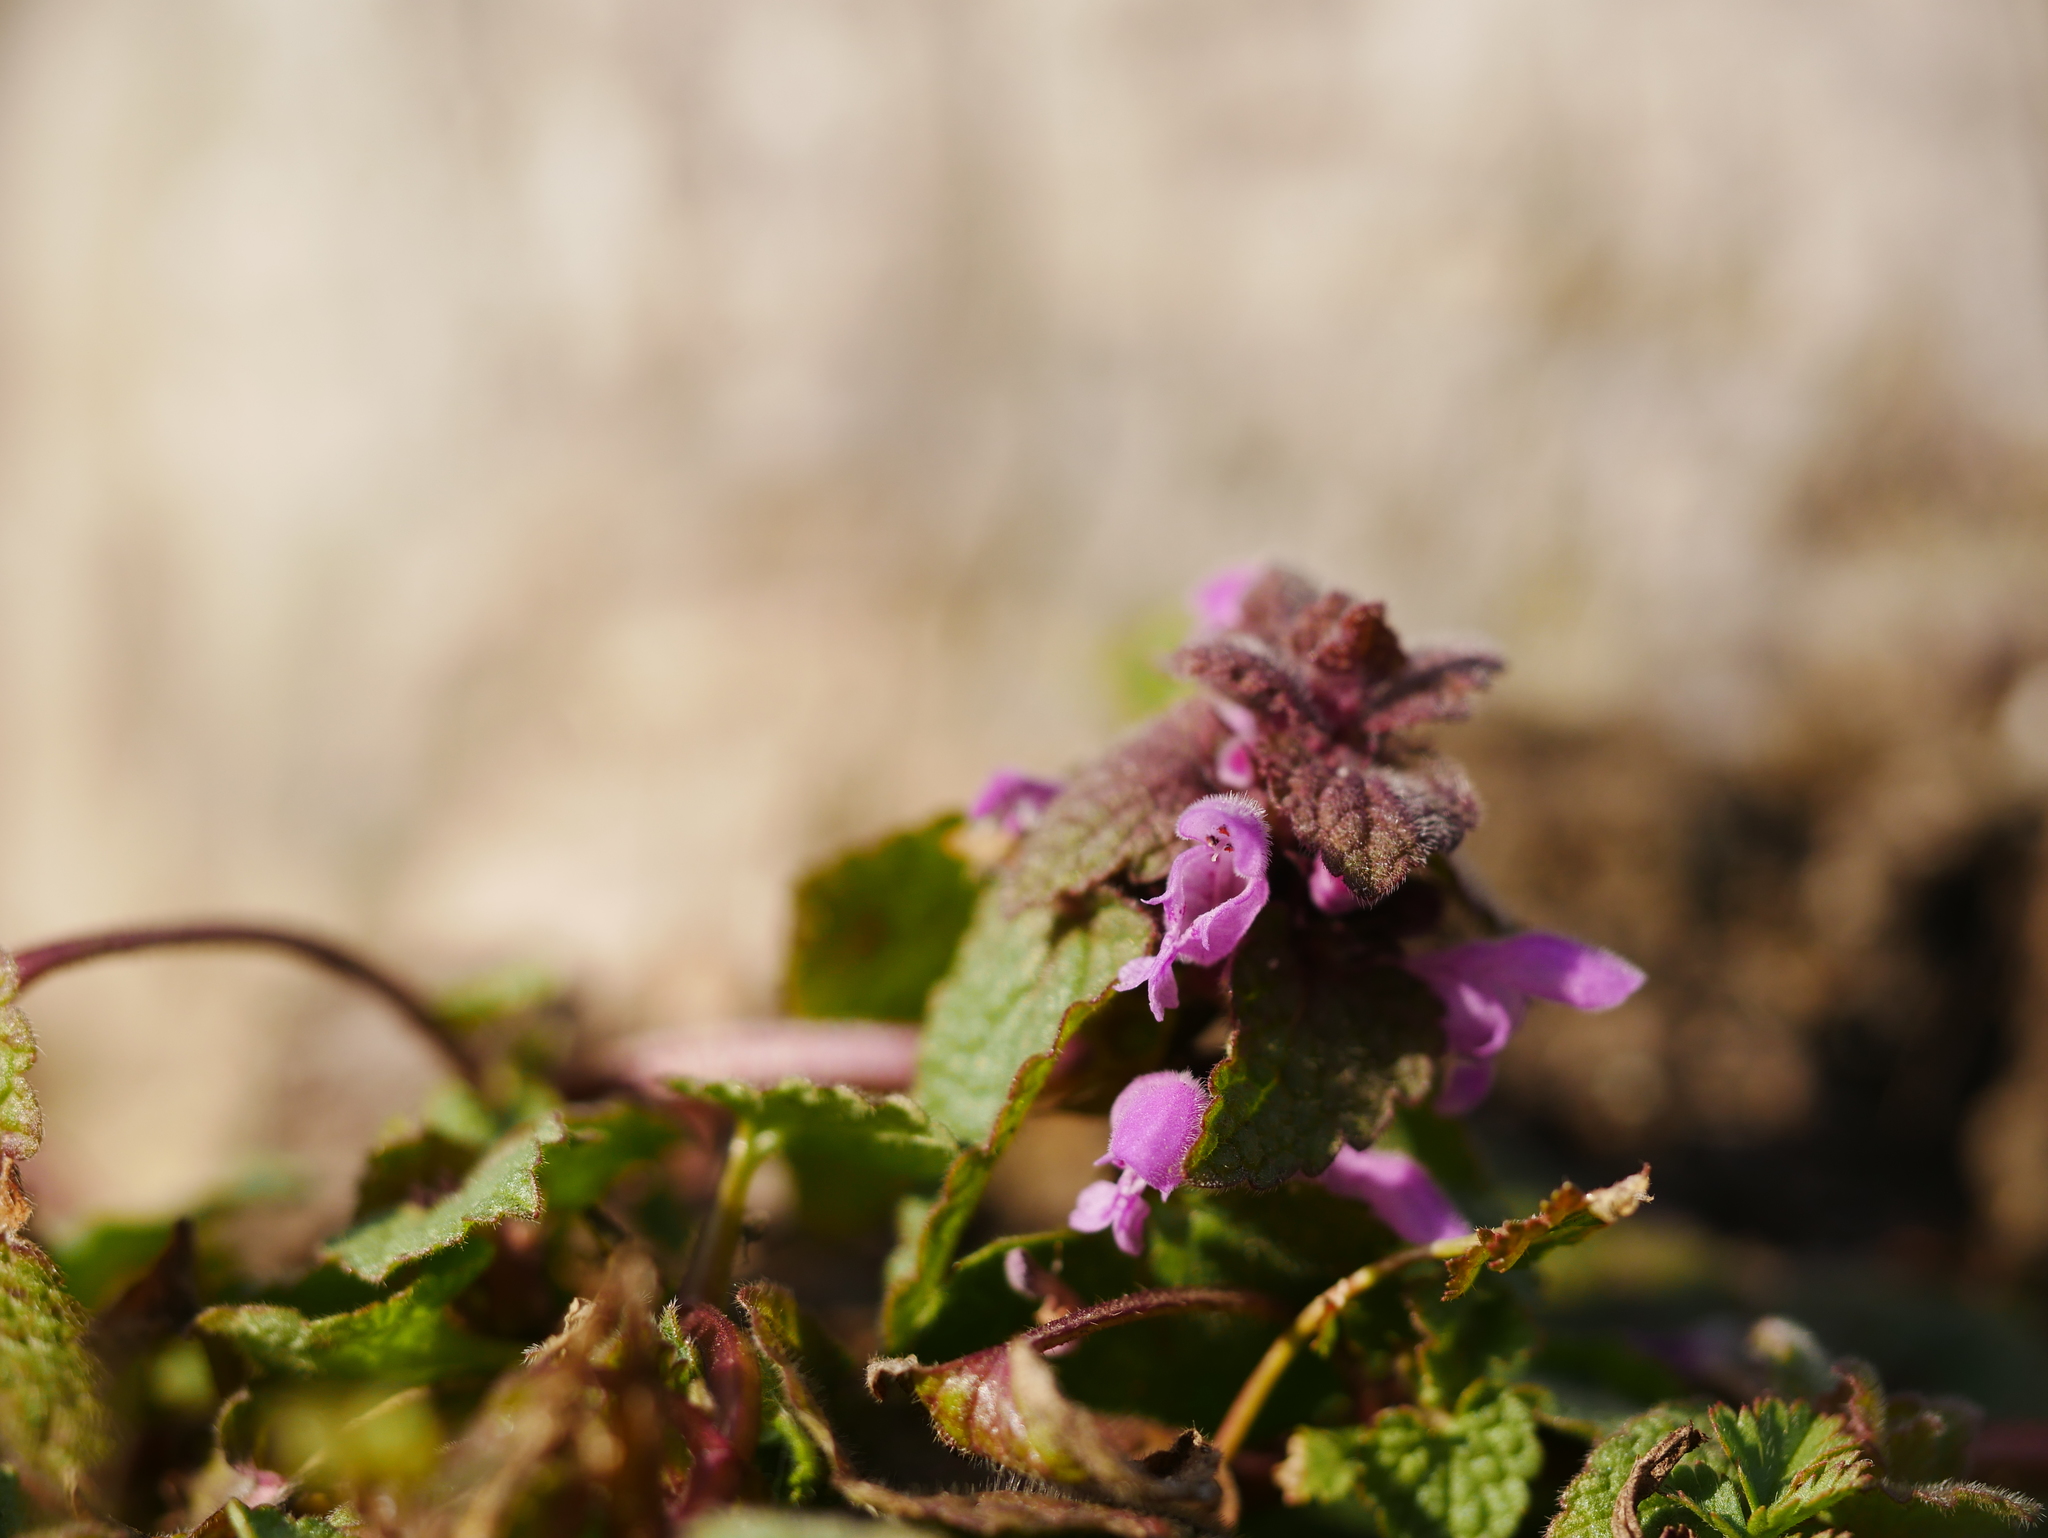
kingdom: Plantae
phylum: Tracheophyta
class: Magnoliopsida
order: Lamiales
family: Lamiaceae
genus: Lamium
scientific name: Lamium purpureum
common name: Red dead-nettle
